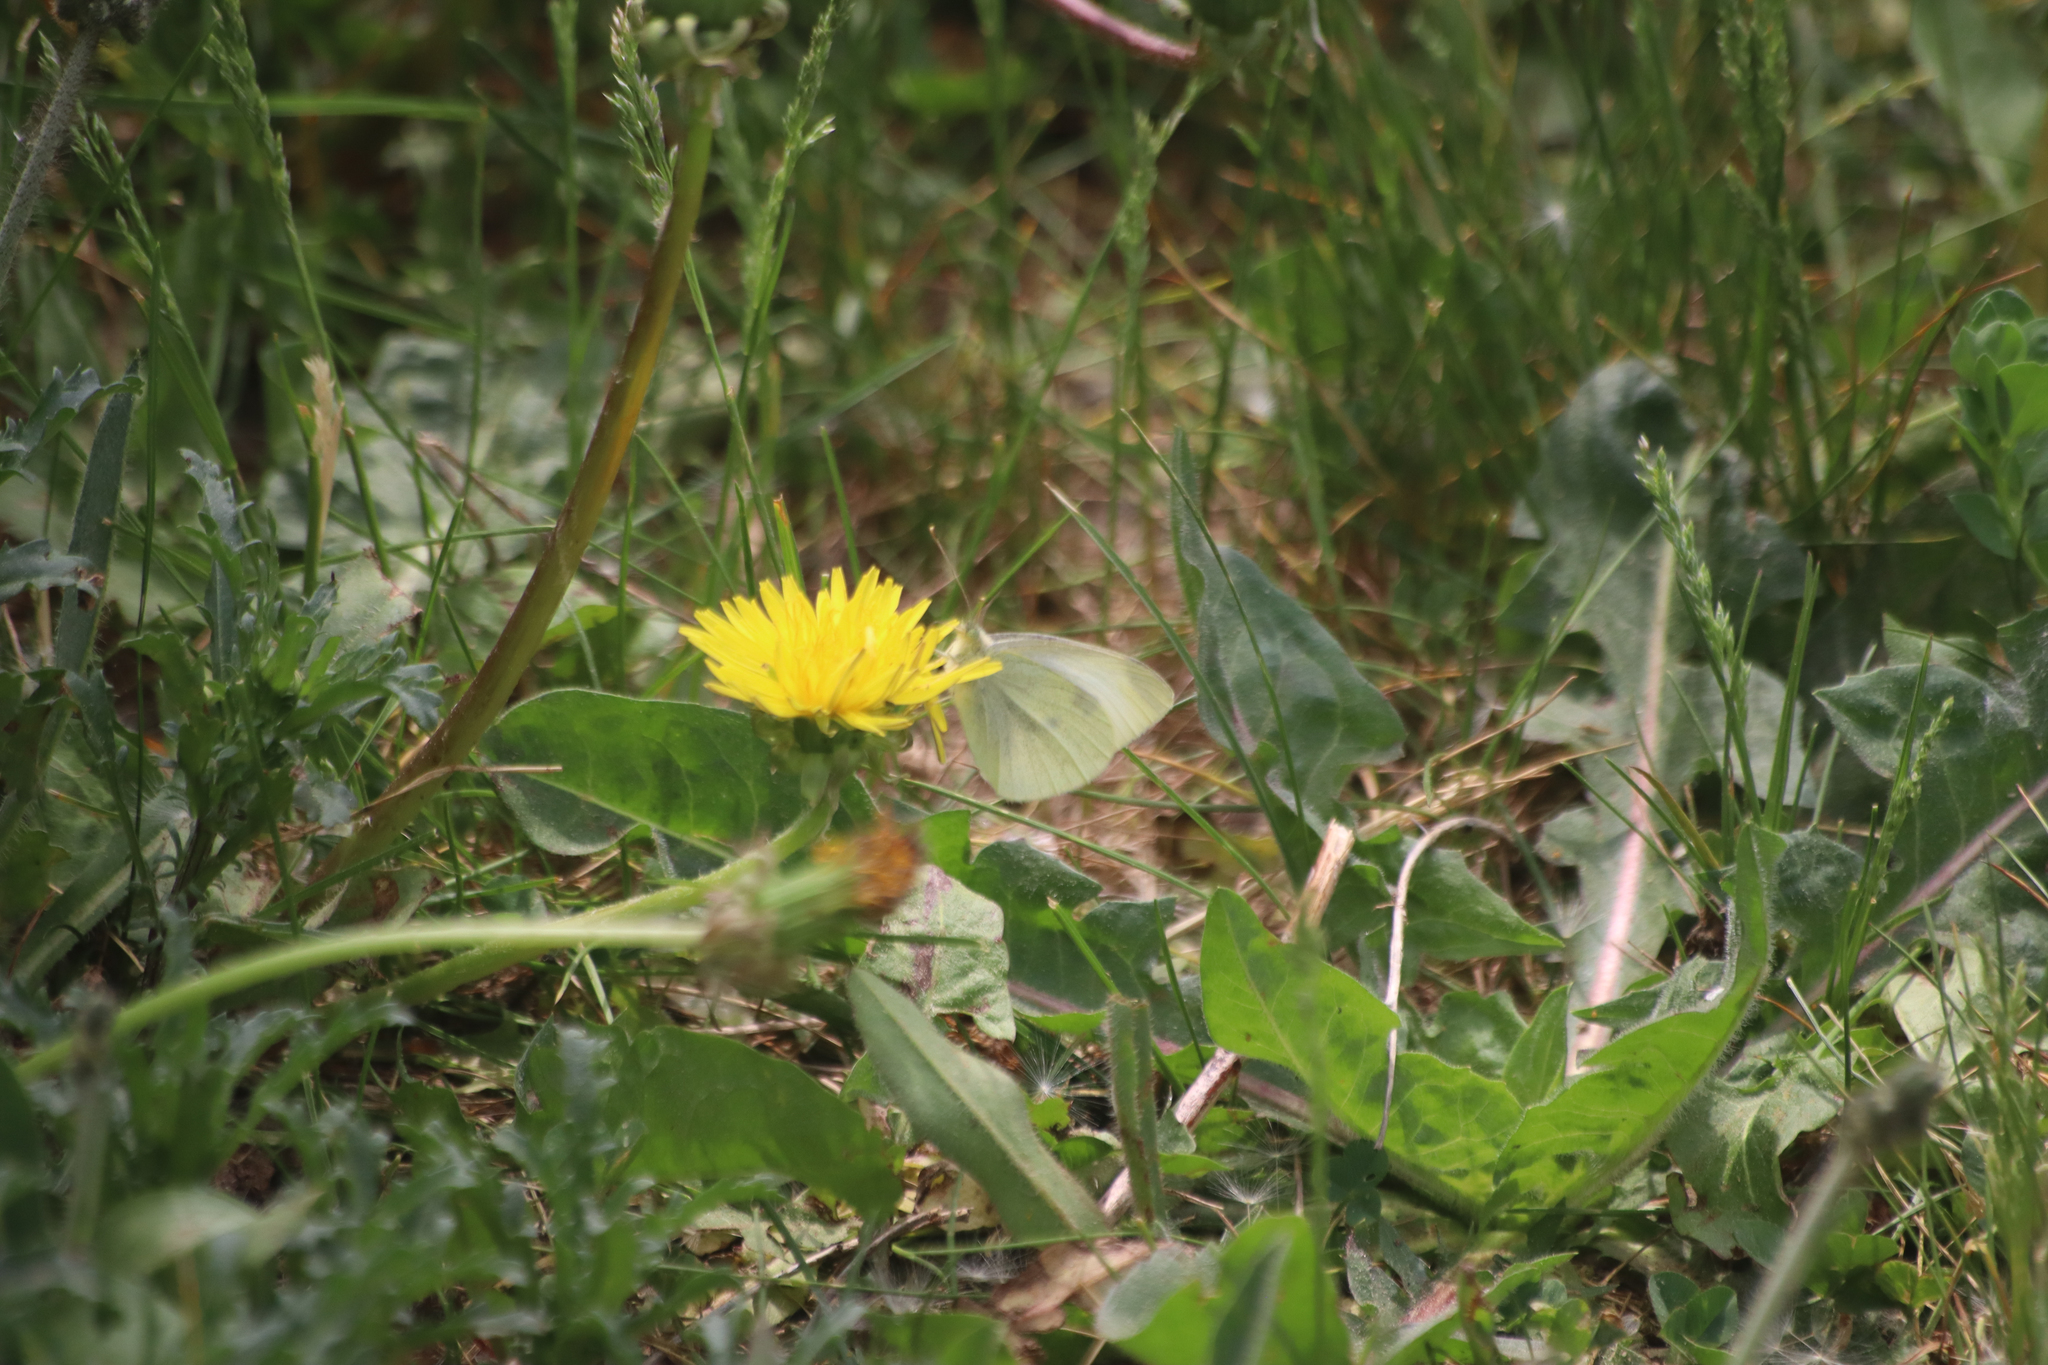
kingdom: Plantae
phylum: Tracheophyta
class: Magnoliopsida
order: Asterales
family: Asteraceae
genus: Taraxacum
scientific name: Taraxacum officinale
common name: Common dandelion
